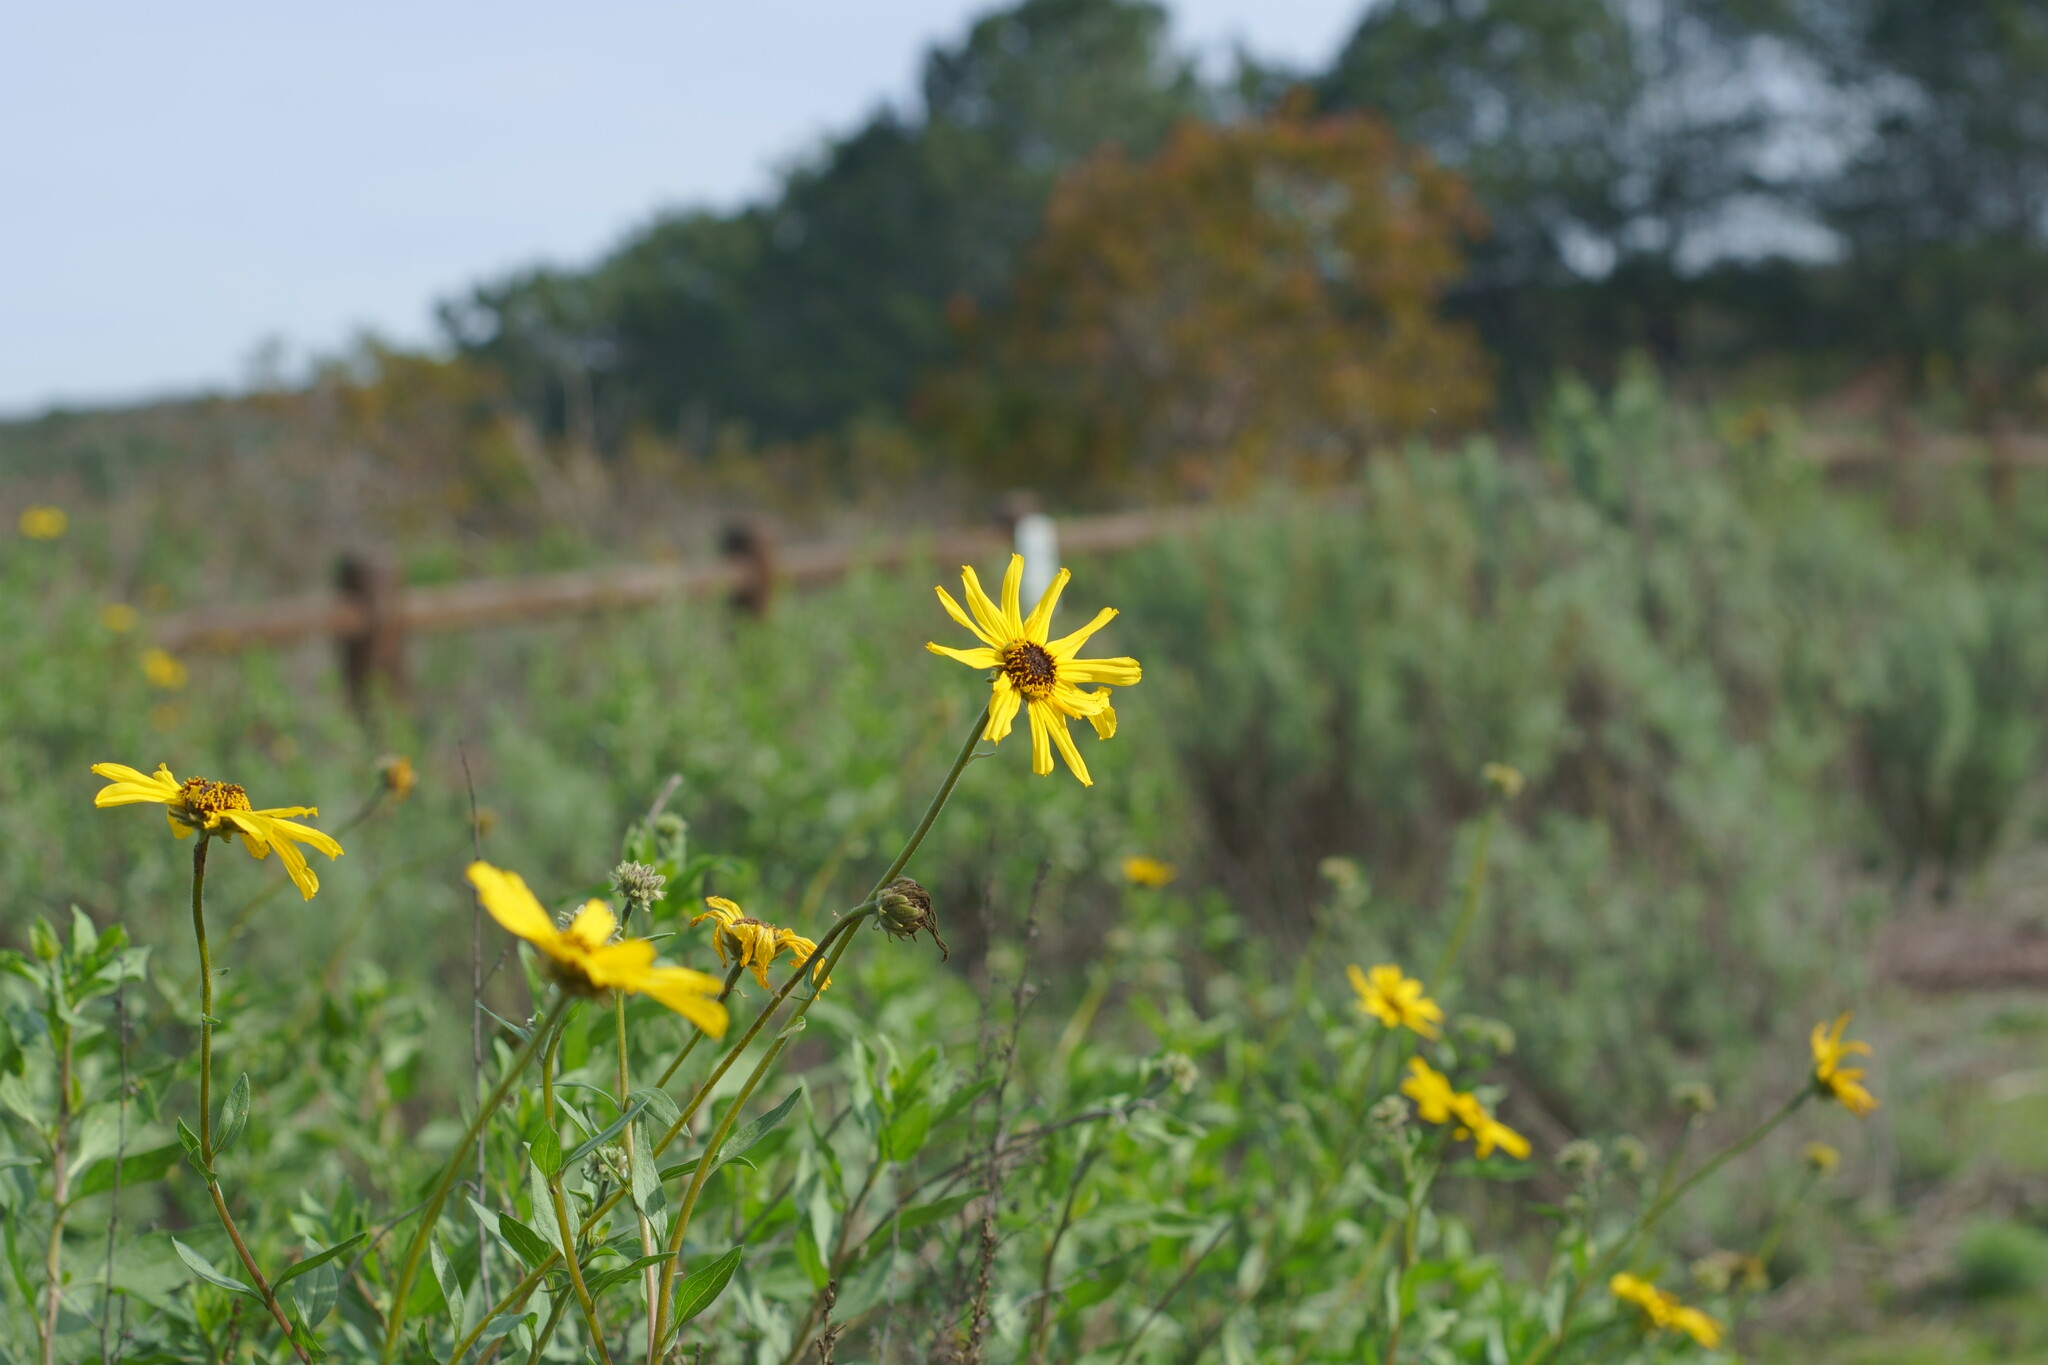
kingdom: Plantae
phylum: Tracheophyta
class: Magnoliopsida
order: Asterales
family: Asteraceae
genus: Encelia
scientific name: Encelia californica
